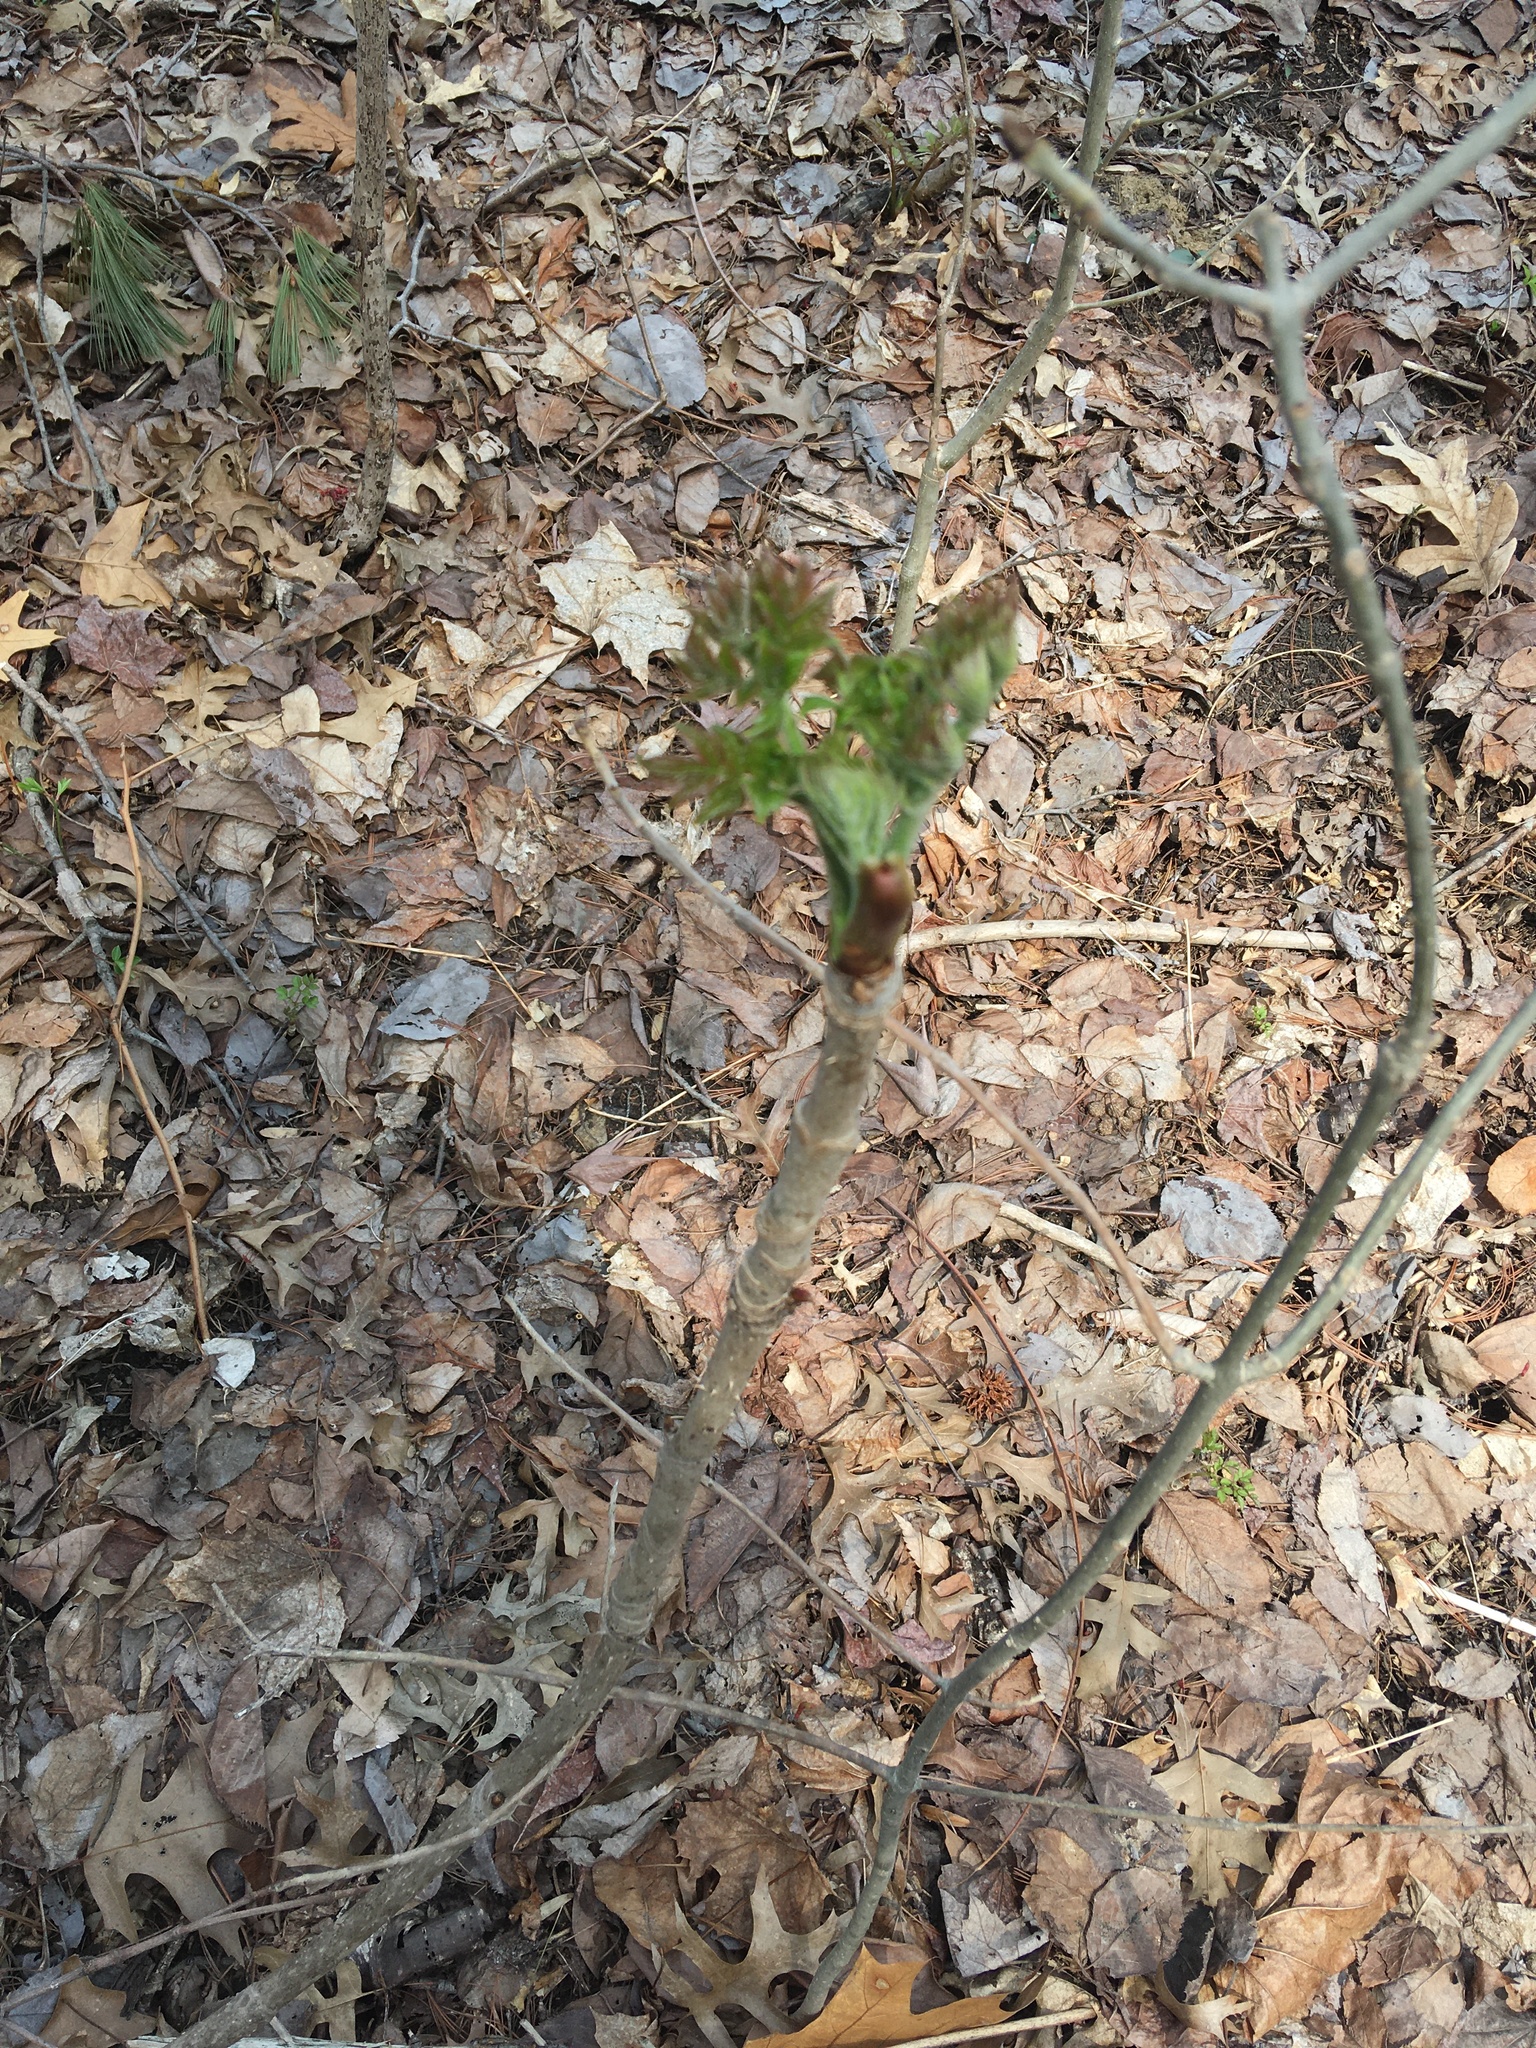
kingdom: Plantae
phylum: Tracheophyta
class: Magnoliopsida
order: Apiales
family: Araliaceae
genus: Aralia
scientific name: Aralia elata
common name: Japanese angelica-tree
